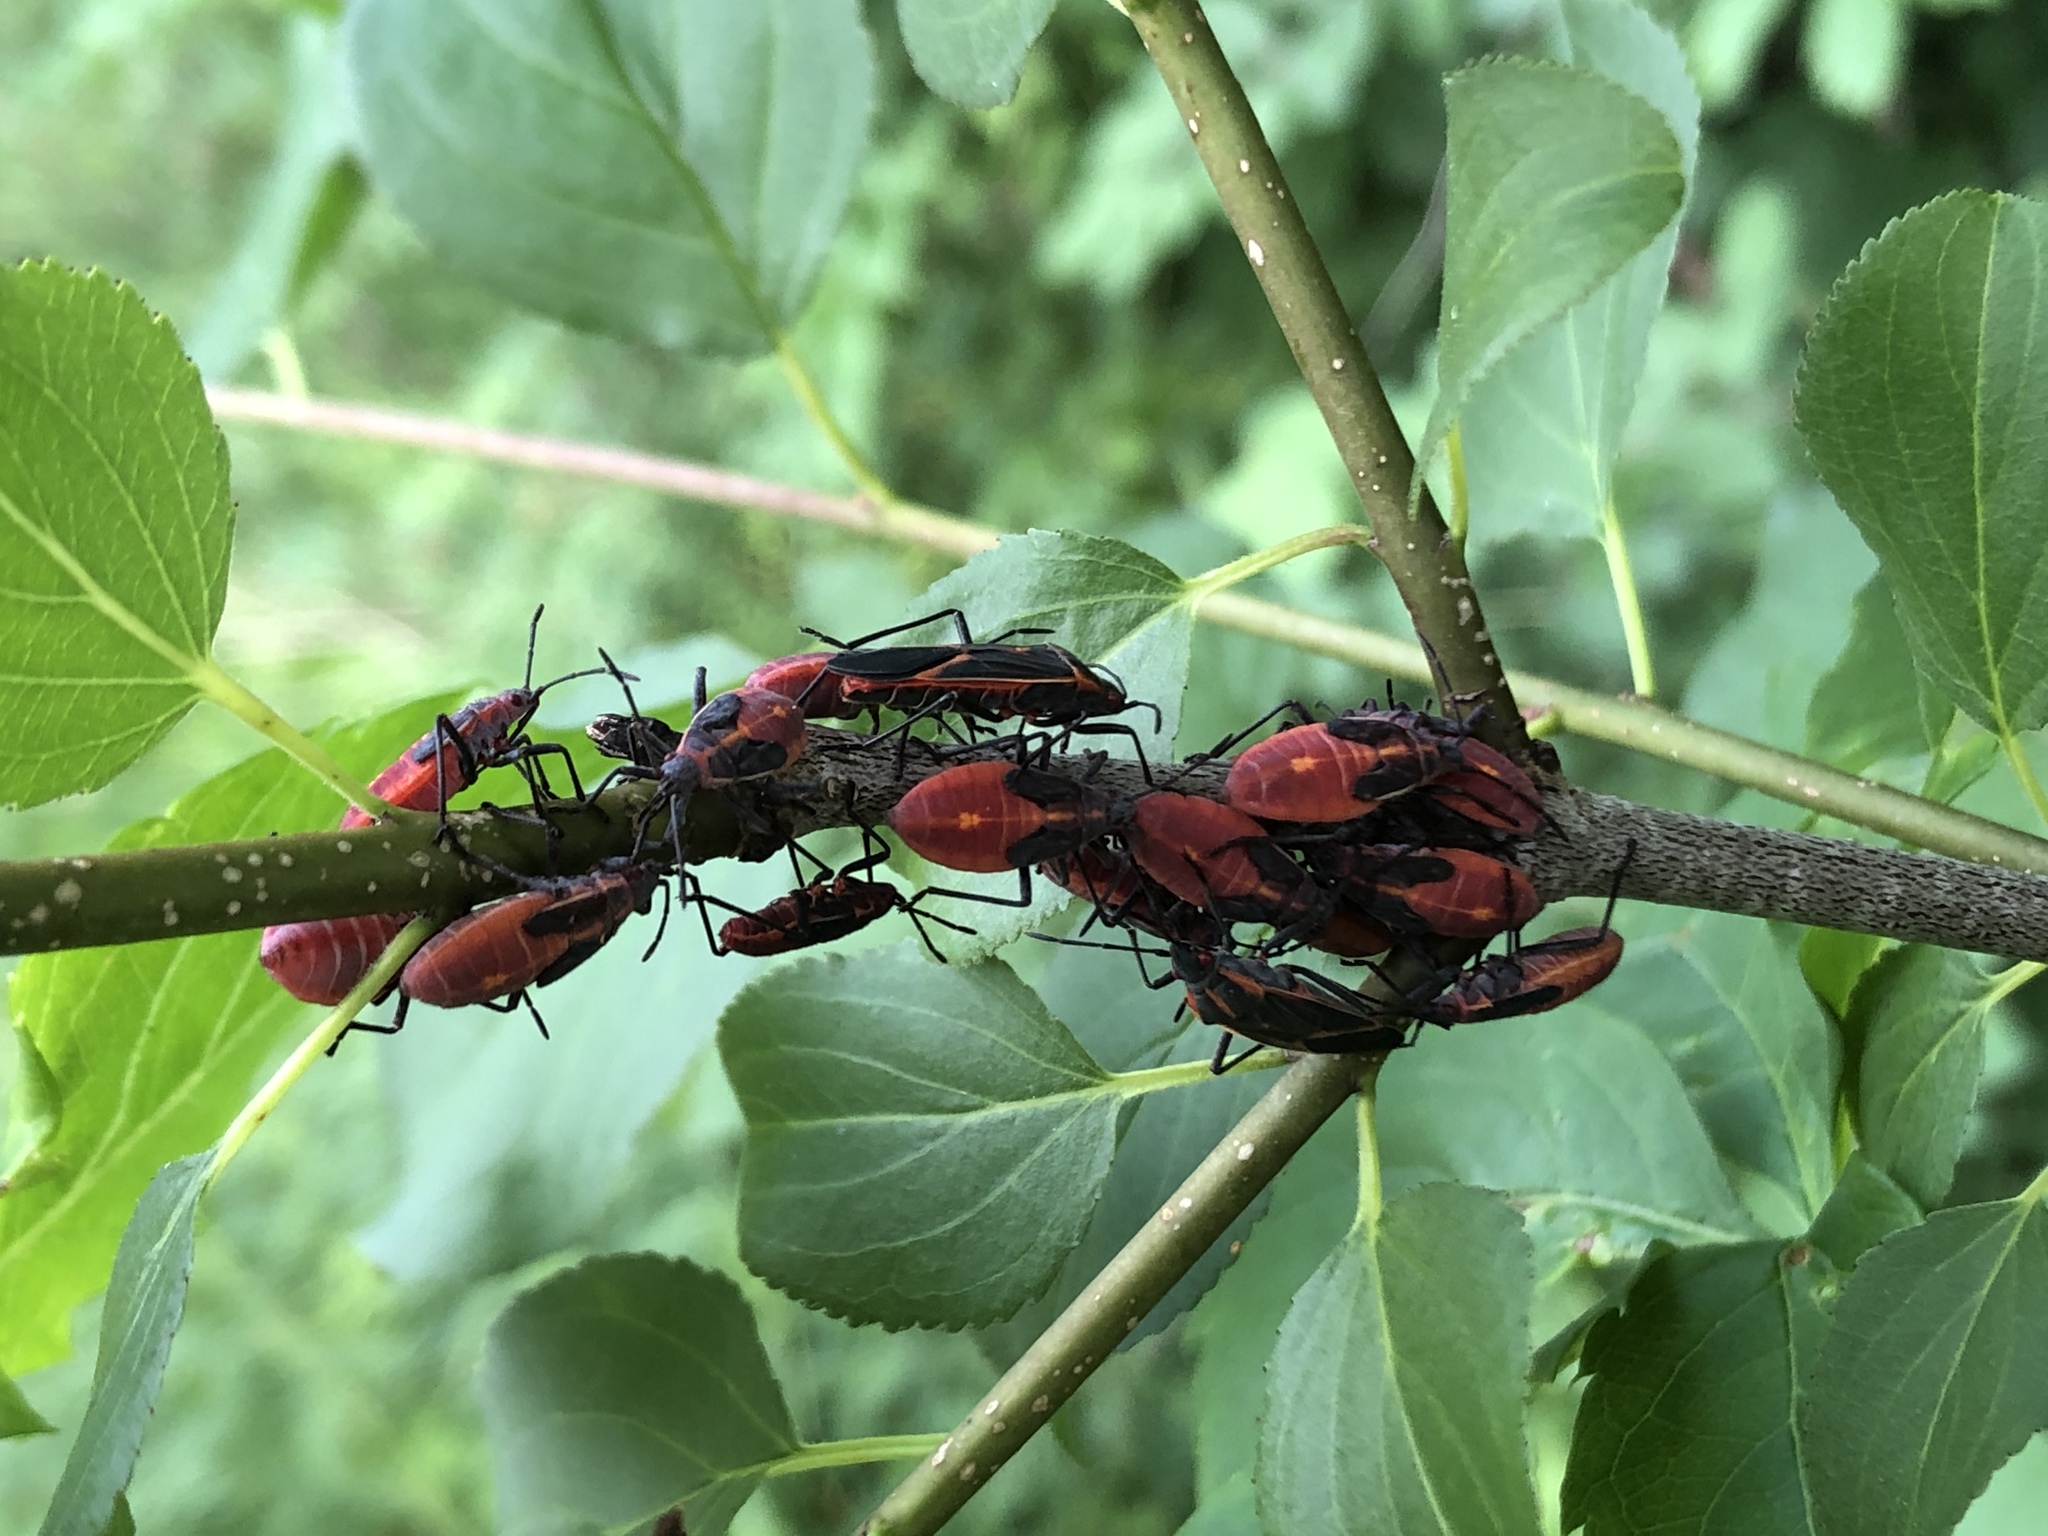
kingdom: Animalia
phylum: Arthropoda
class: Insecta
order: Hemiptera
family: Rhopalidae
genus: Boisea
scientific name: Boisea trivittata
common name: Boxelder bug
